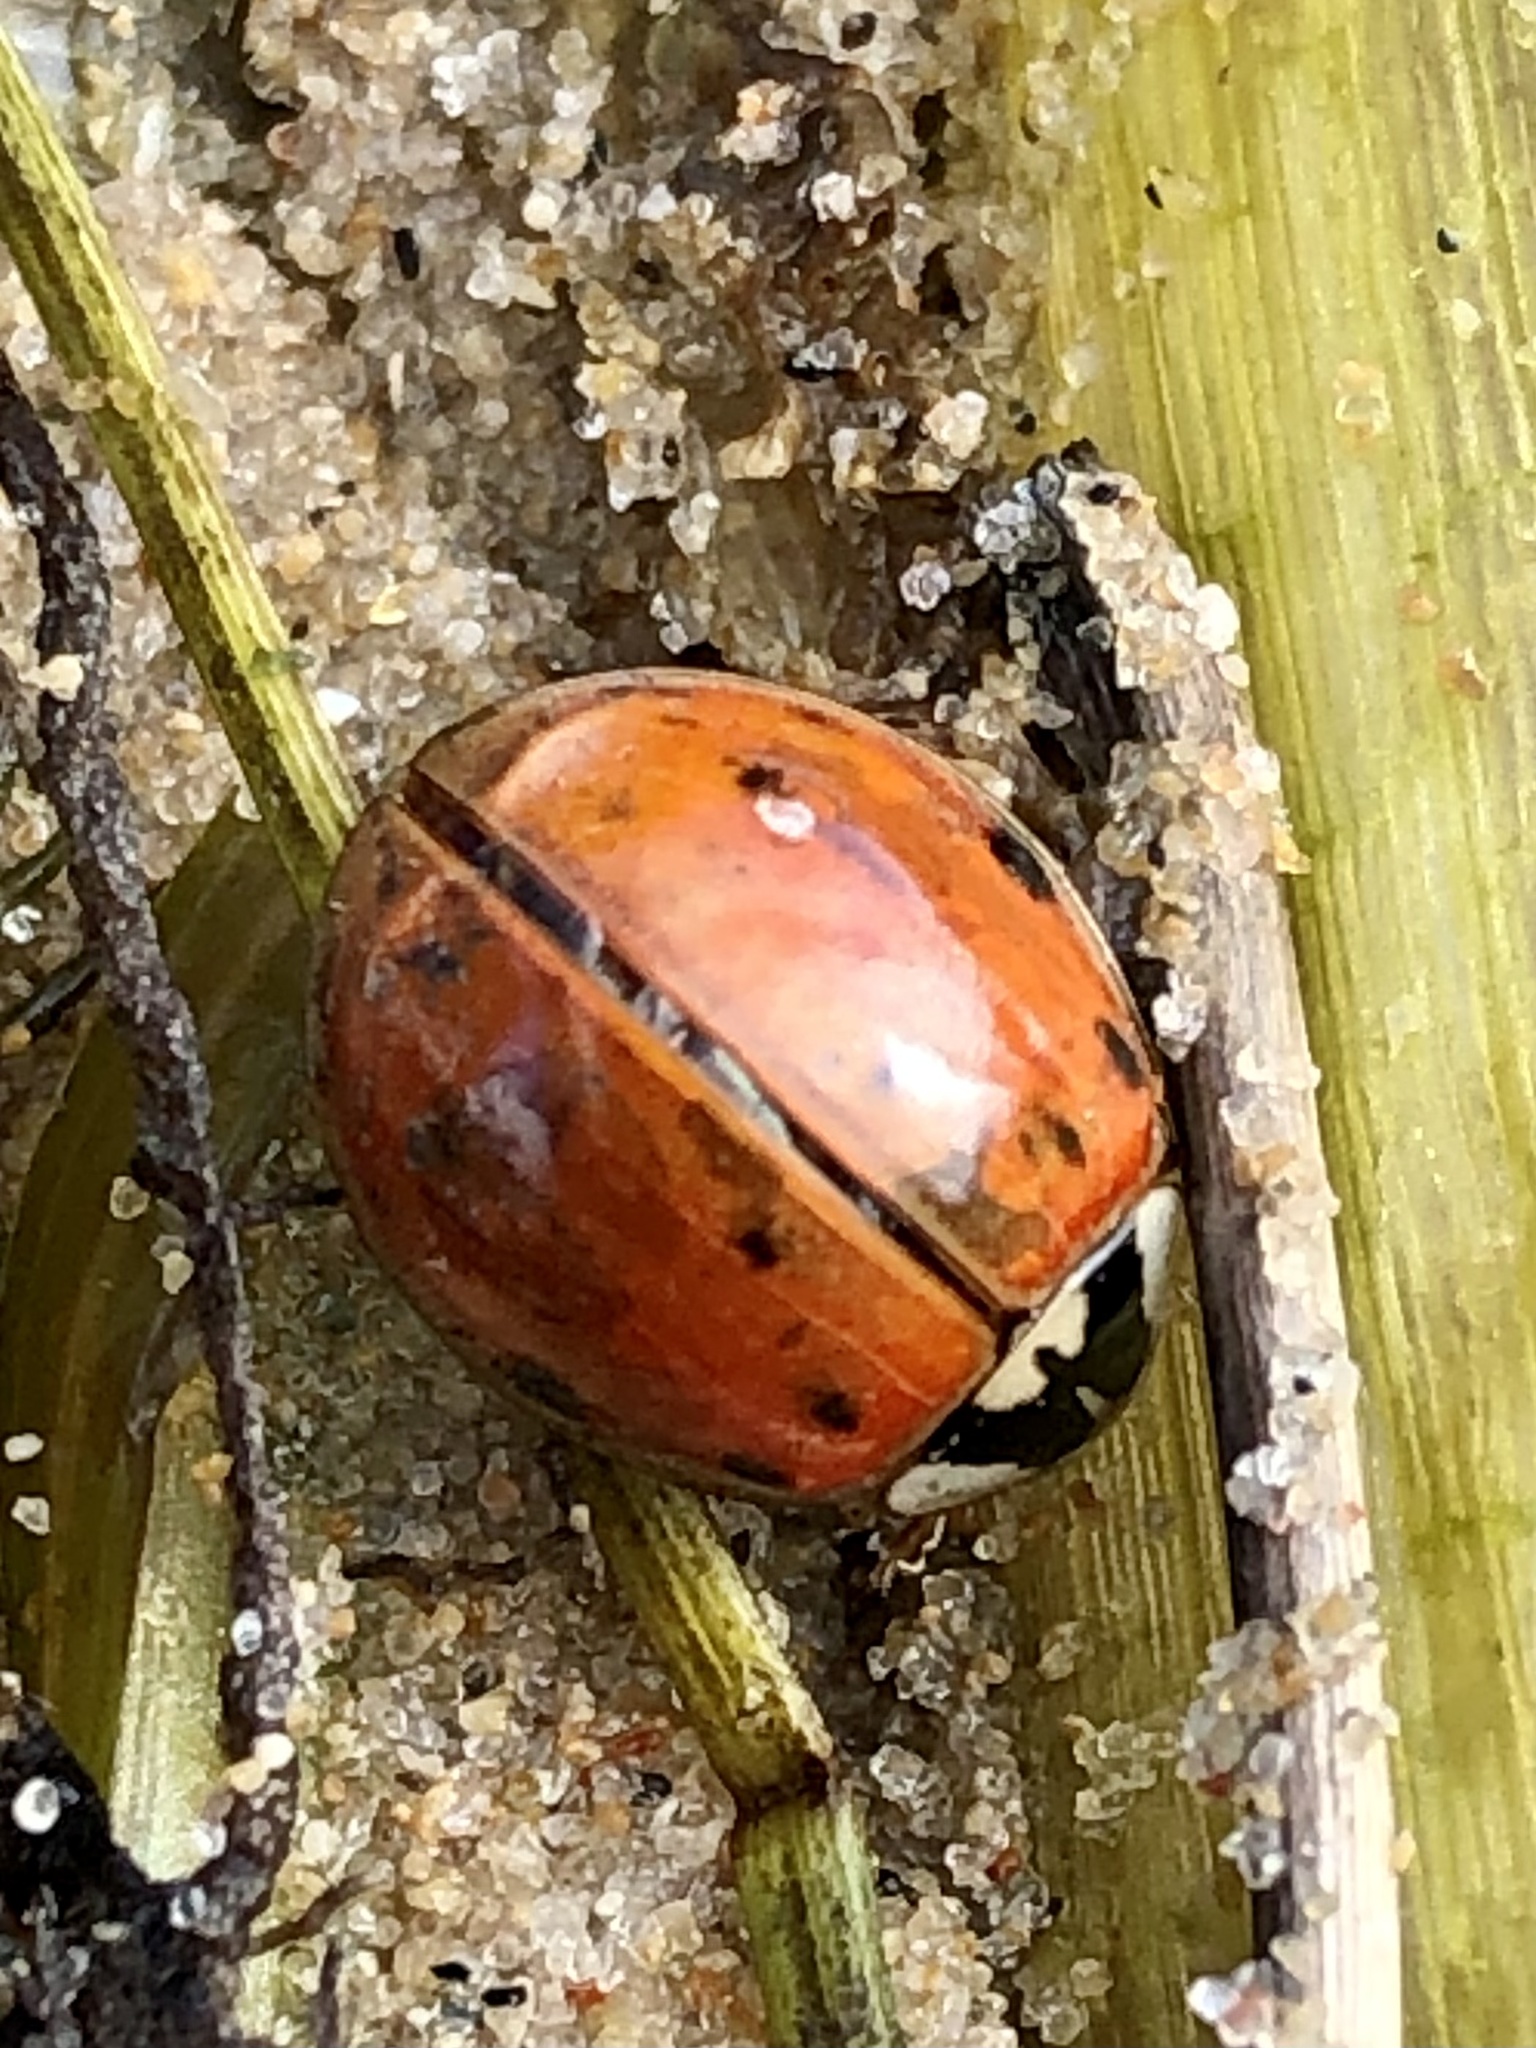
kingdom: Animalia
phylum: Arthropoda
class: Insecta
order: Coleoptera
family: Coccinellidae
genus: Harmonia
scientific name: Harmonia axyridis
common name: Harlequin ladybird
